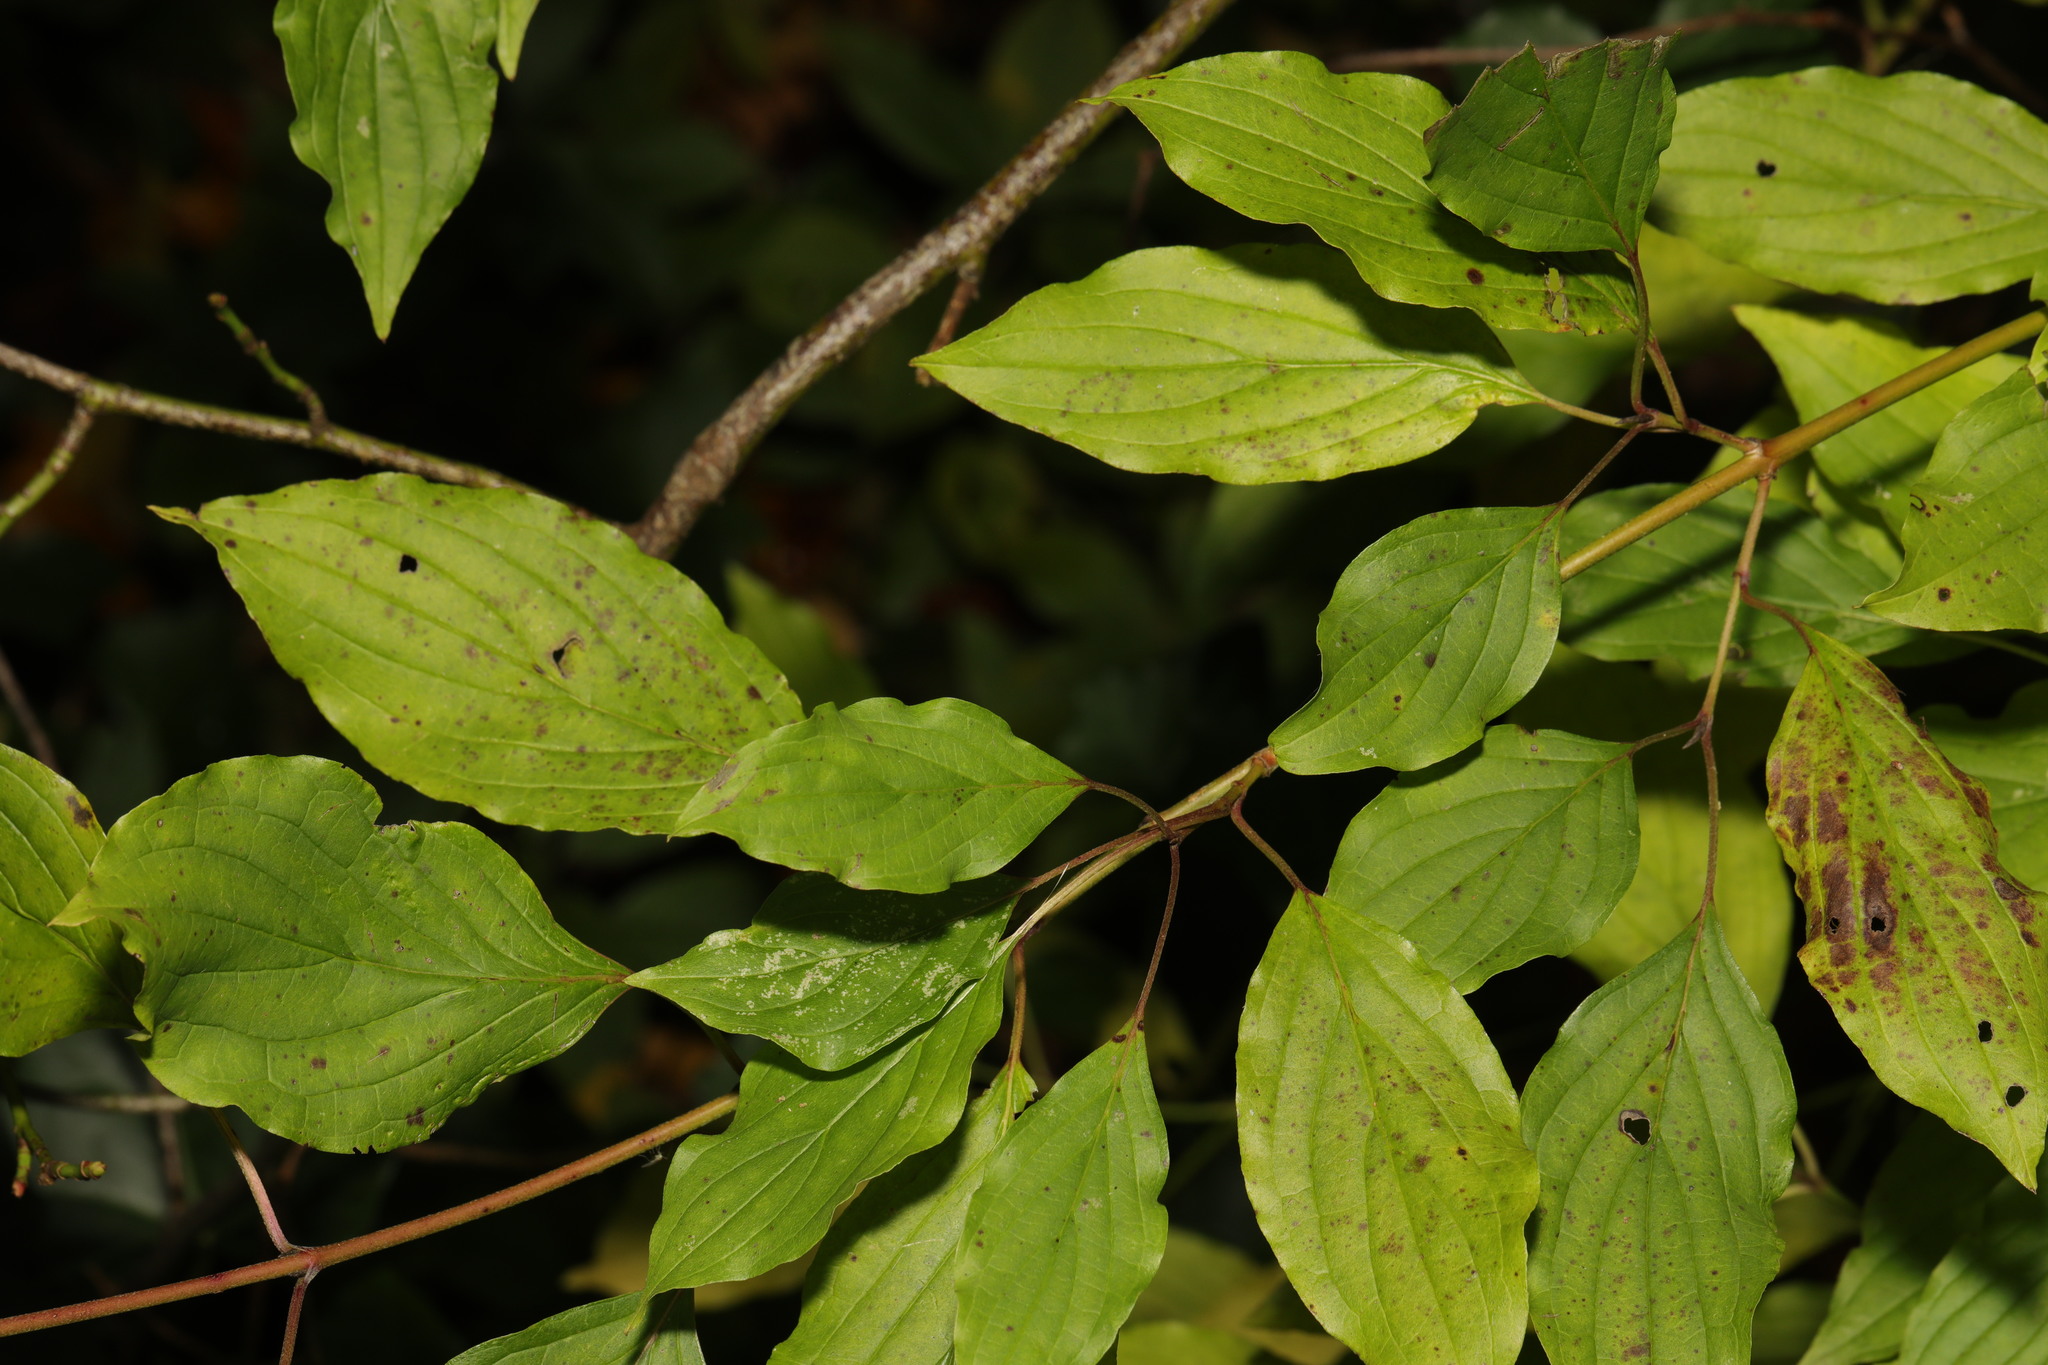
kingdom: Plantae
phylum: Tracheophyta
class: Magnoliopsida
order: Cornales
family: Cornaceae
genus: Cornus
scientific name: Cornus sanguinea
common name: Dogwood
